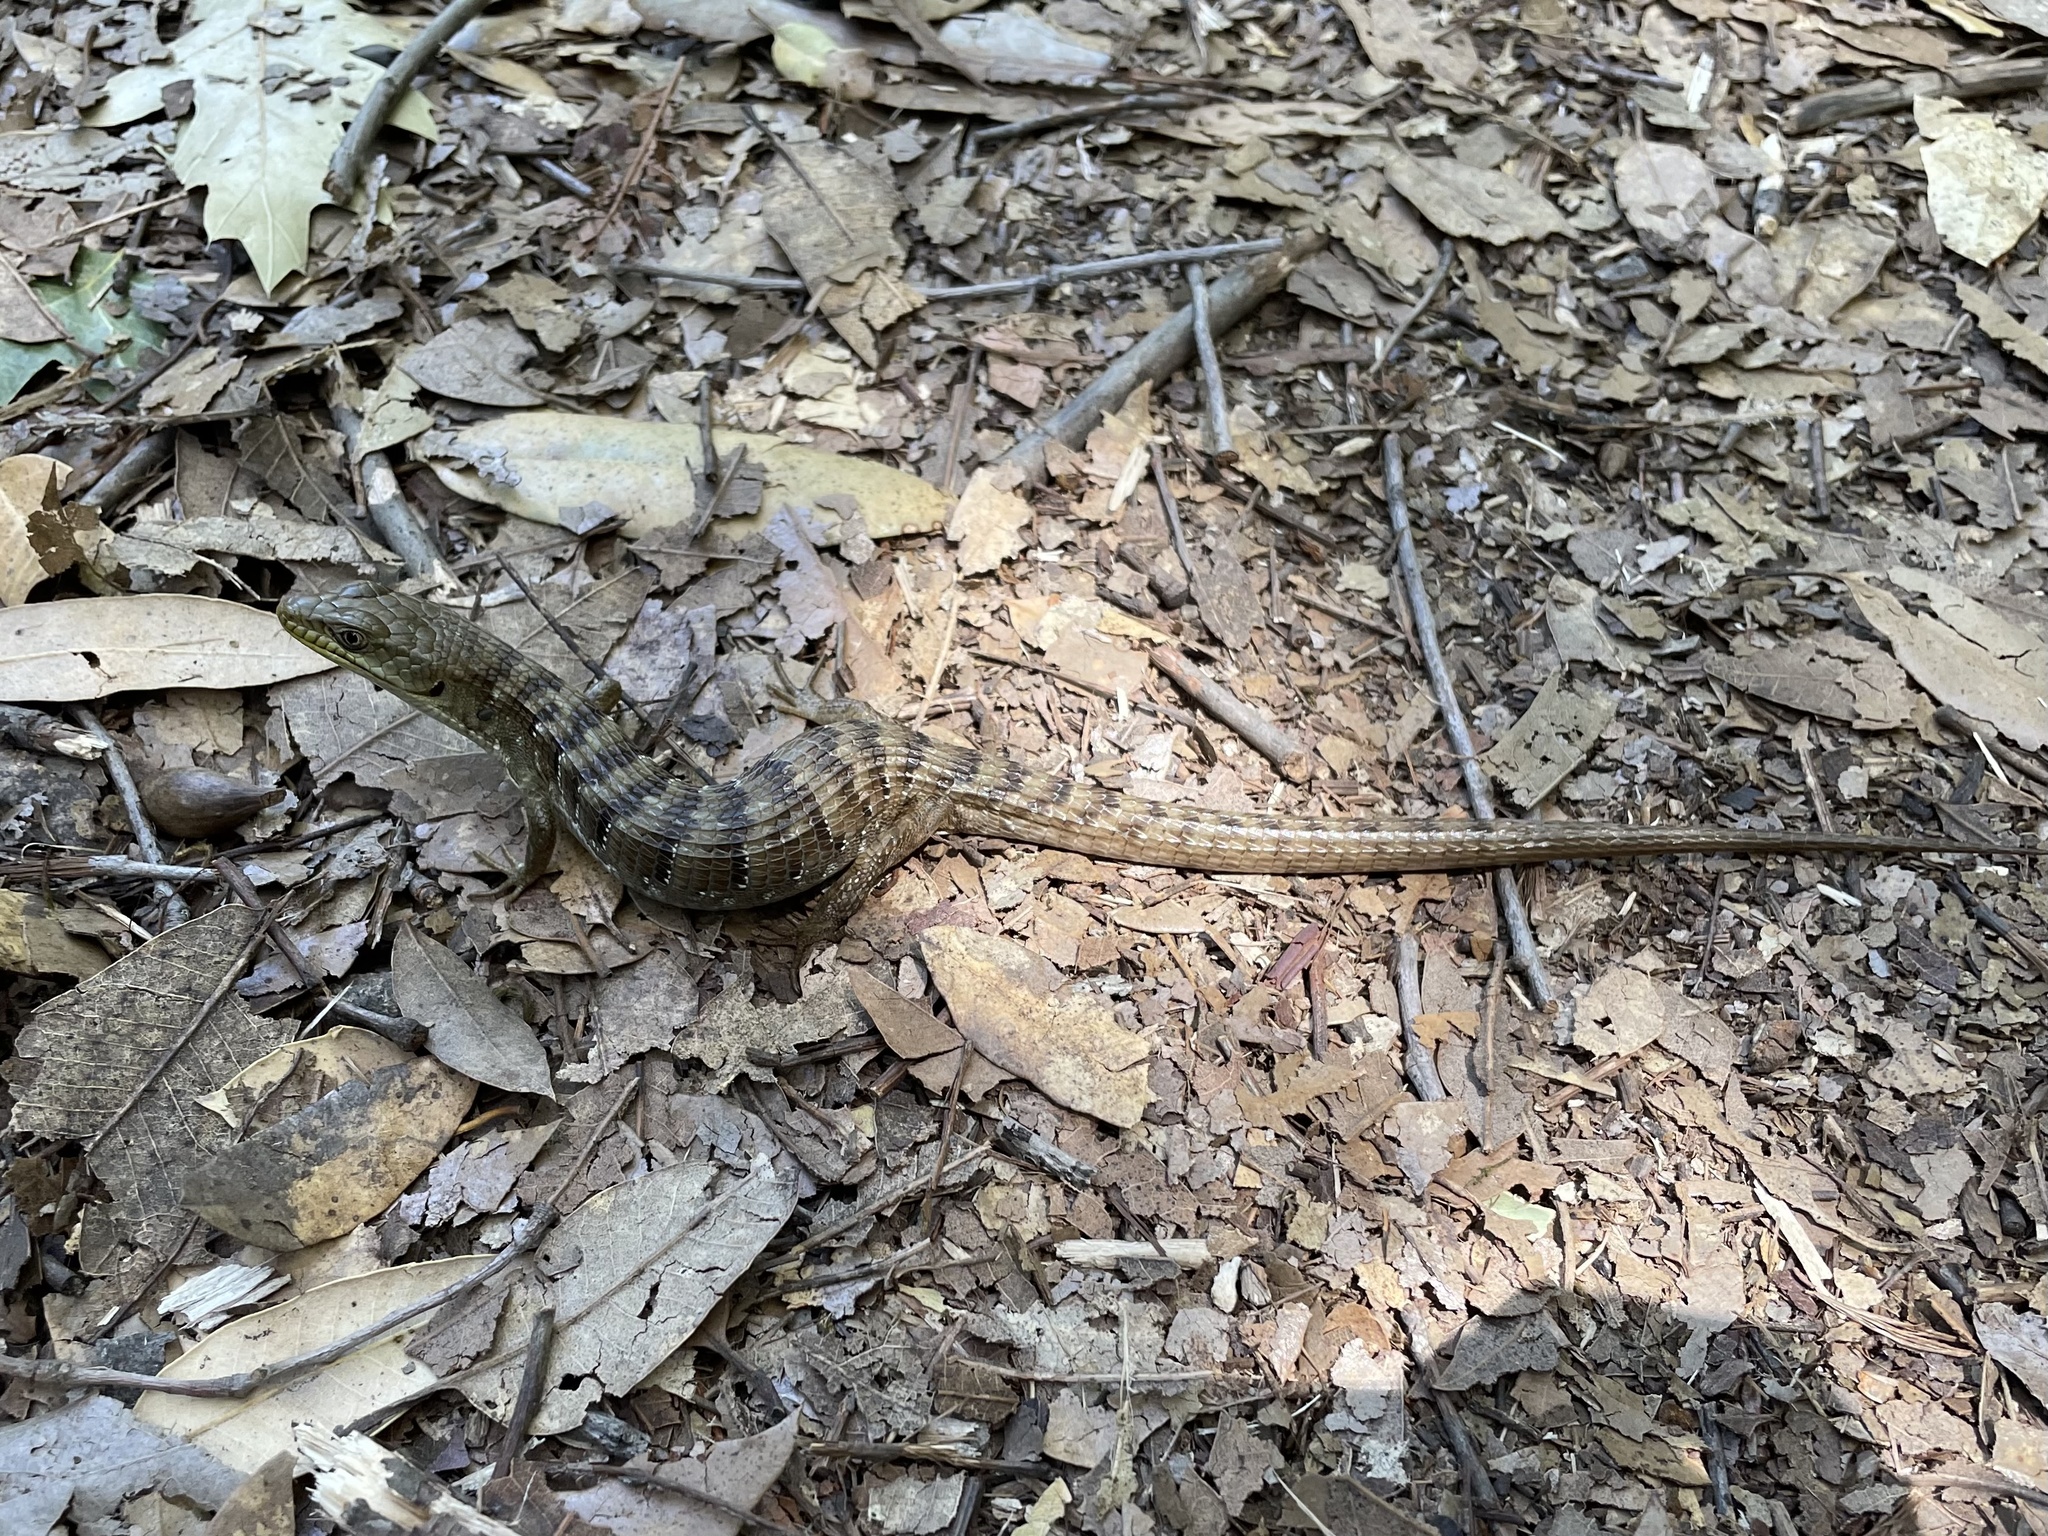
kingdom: Animalia
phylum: Chordata
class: Squamata
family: Anguidae
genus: Elgaria
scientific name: Elgaria multicarinata
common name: Southern alligator lizard
